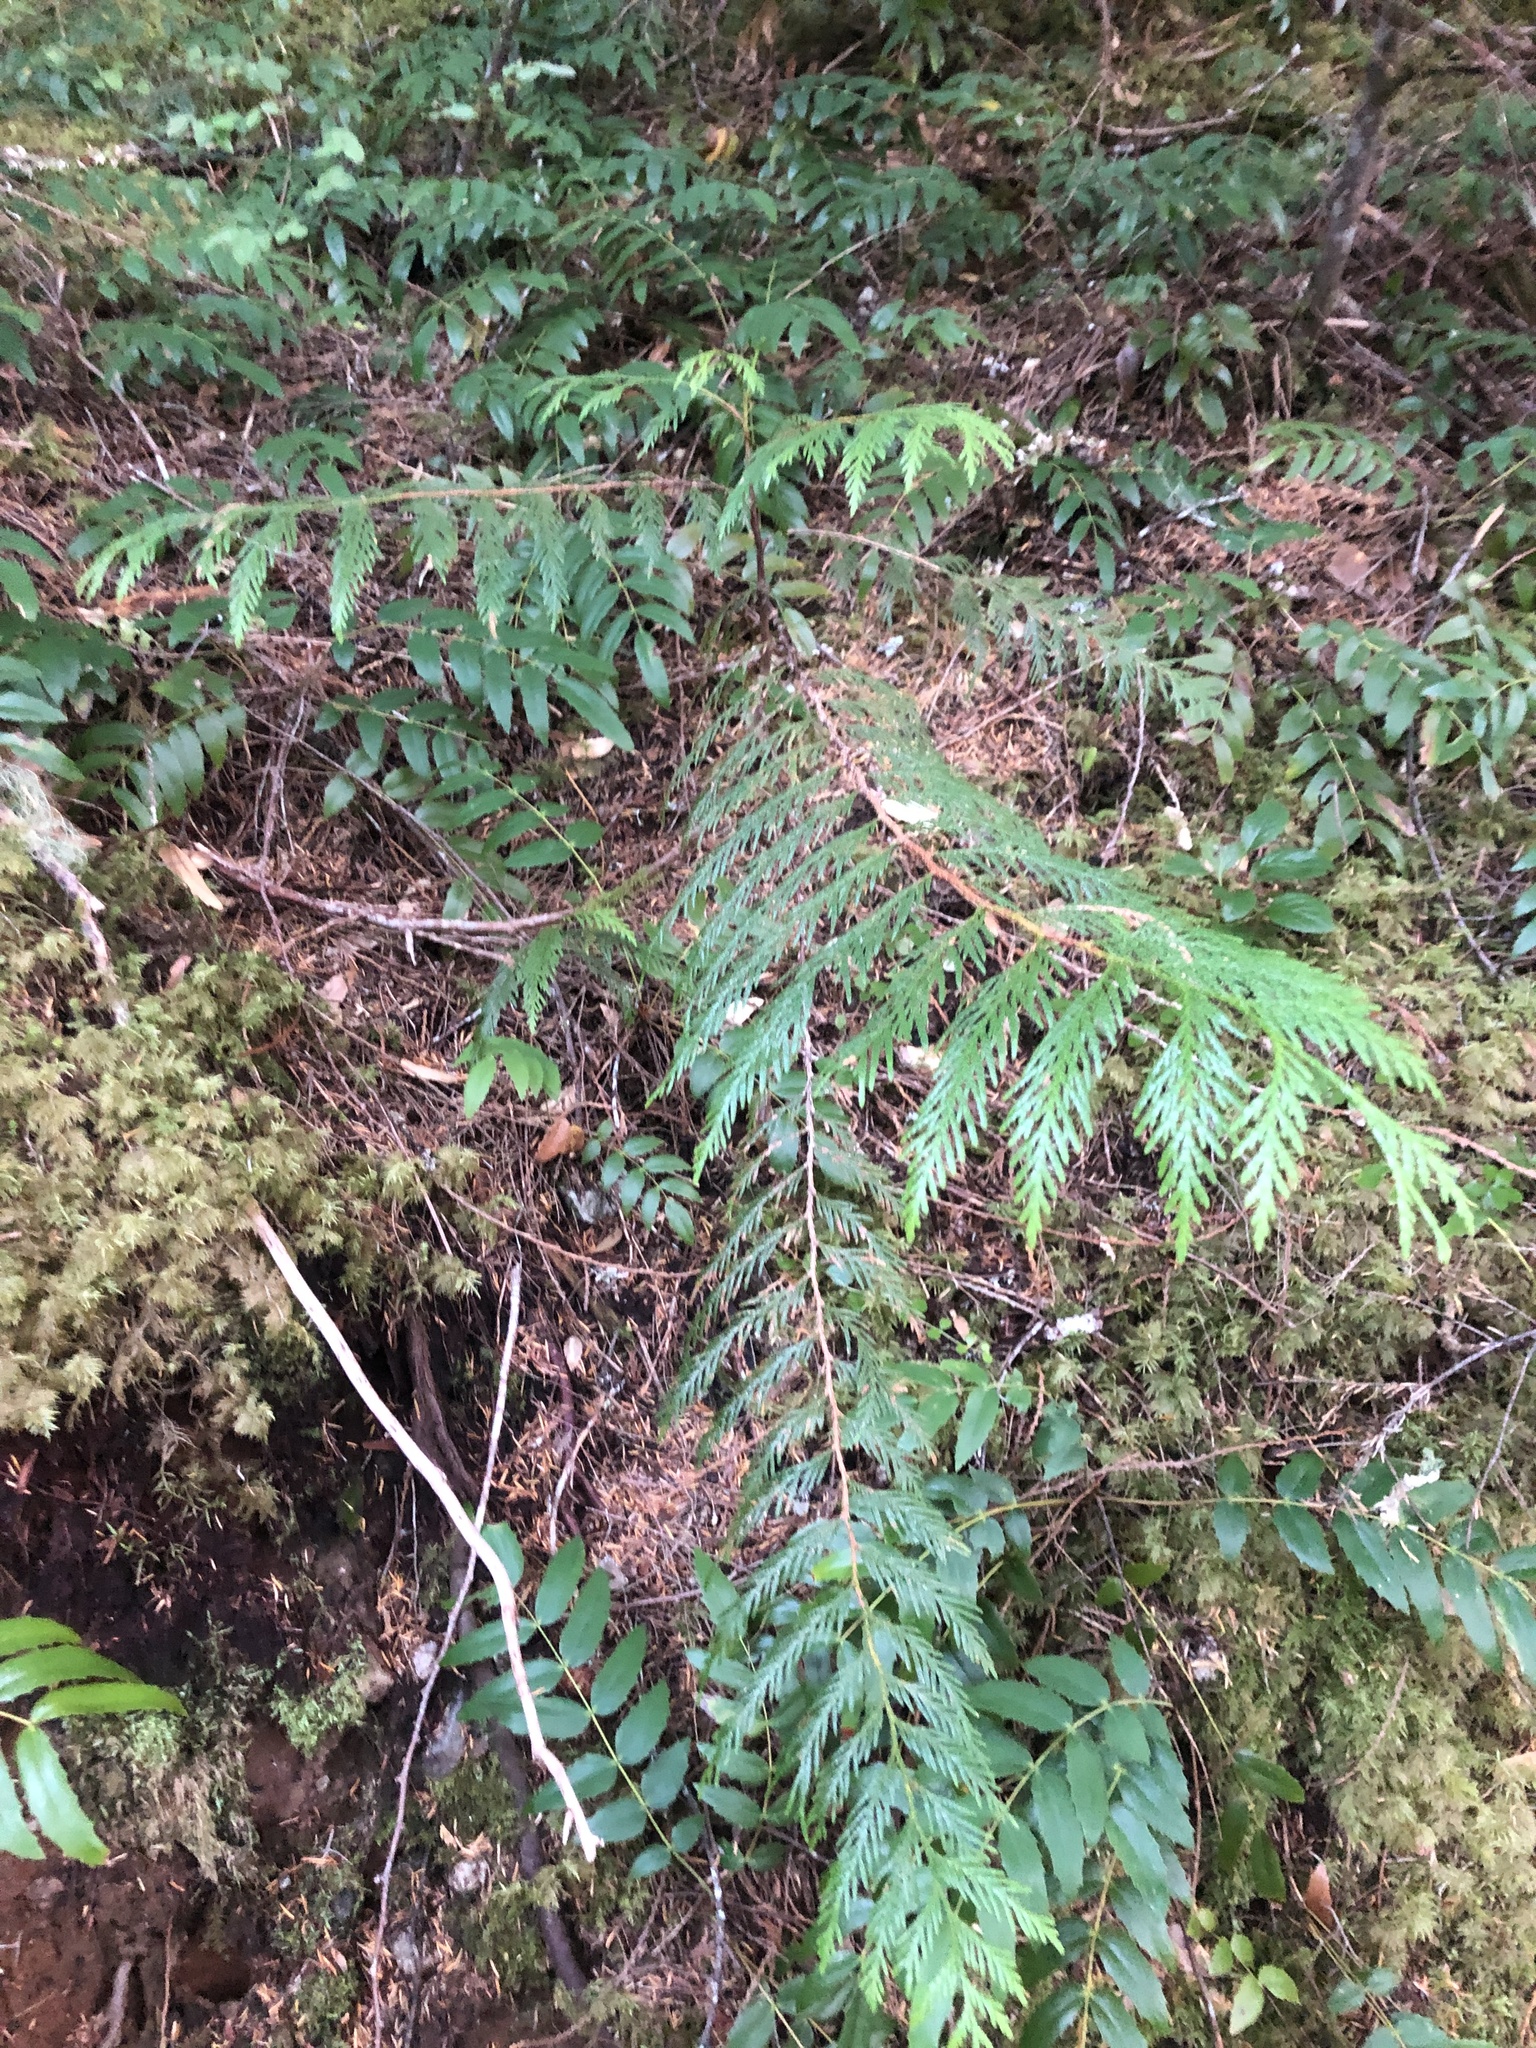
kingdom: Plantae
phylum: Tracheophyta
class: Pinopsida
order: Pinales
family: Cupressaceae
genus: Thuja
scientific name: Thuja plicata
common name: Western red-cedar
